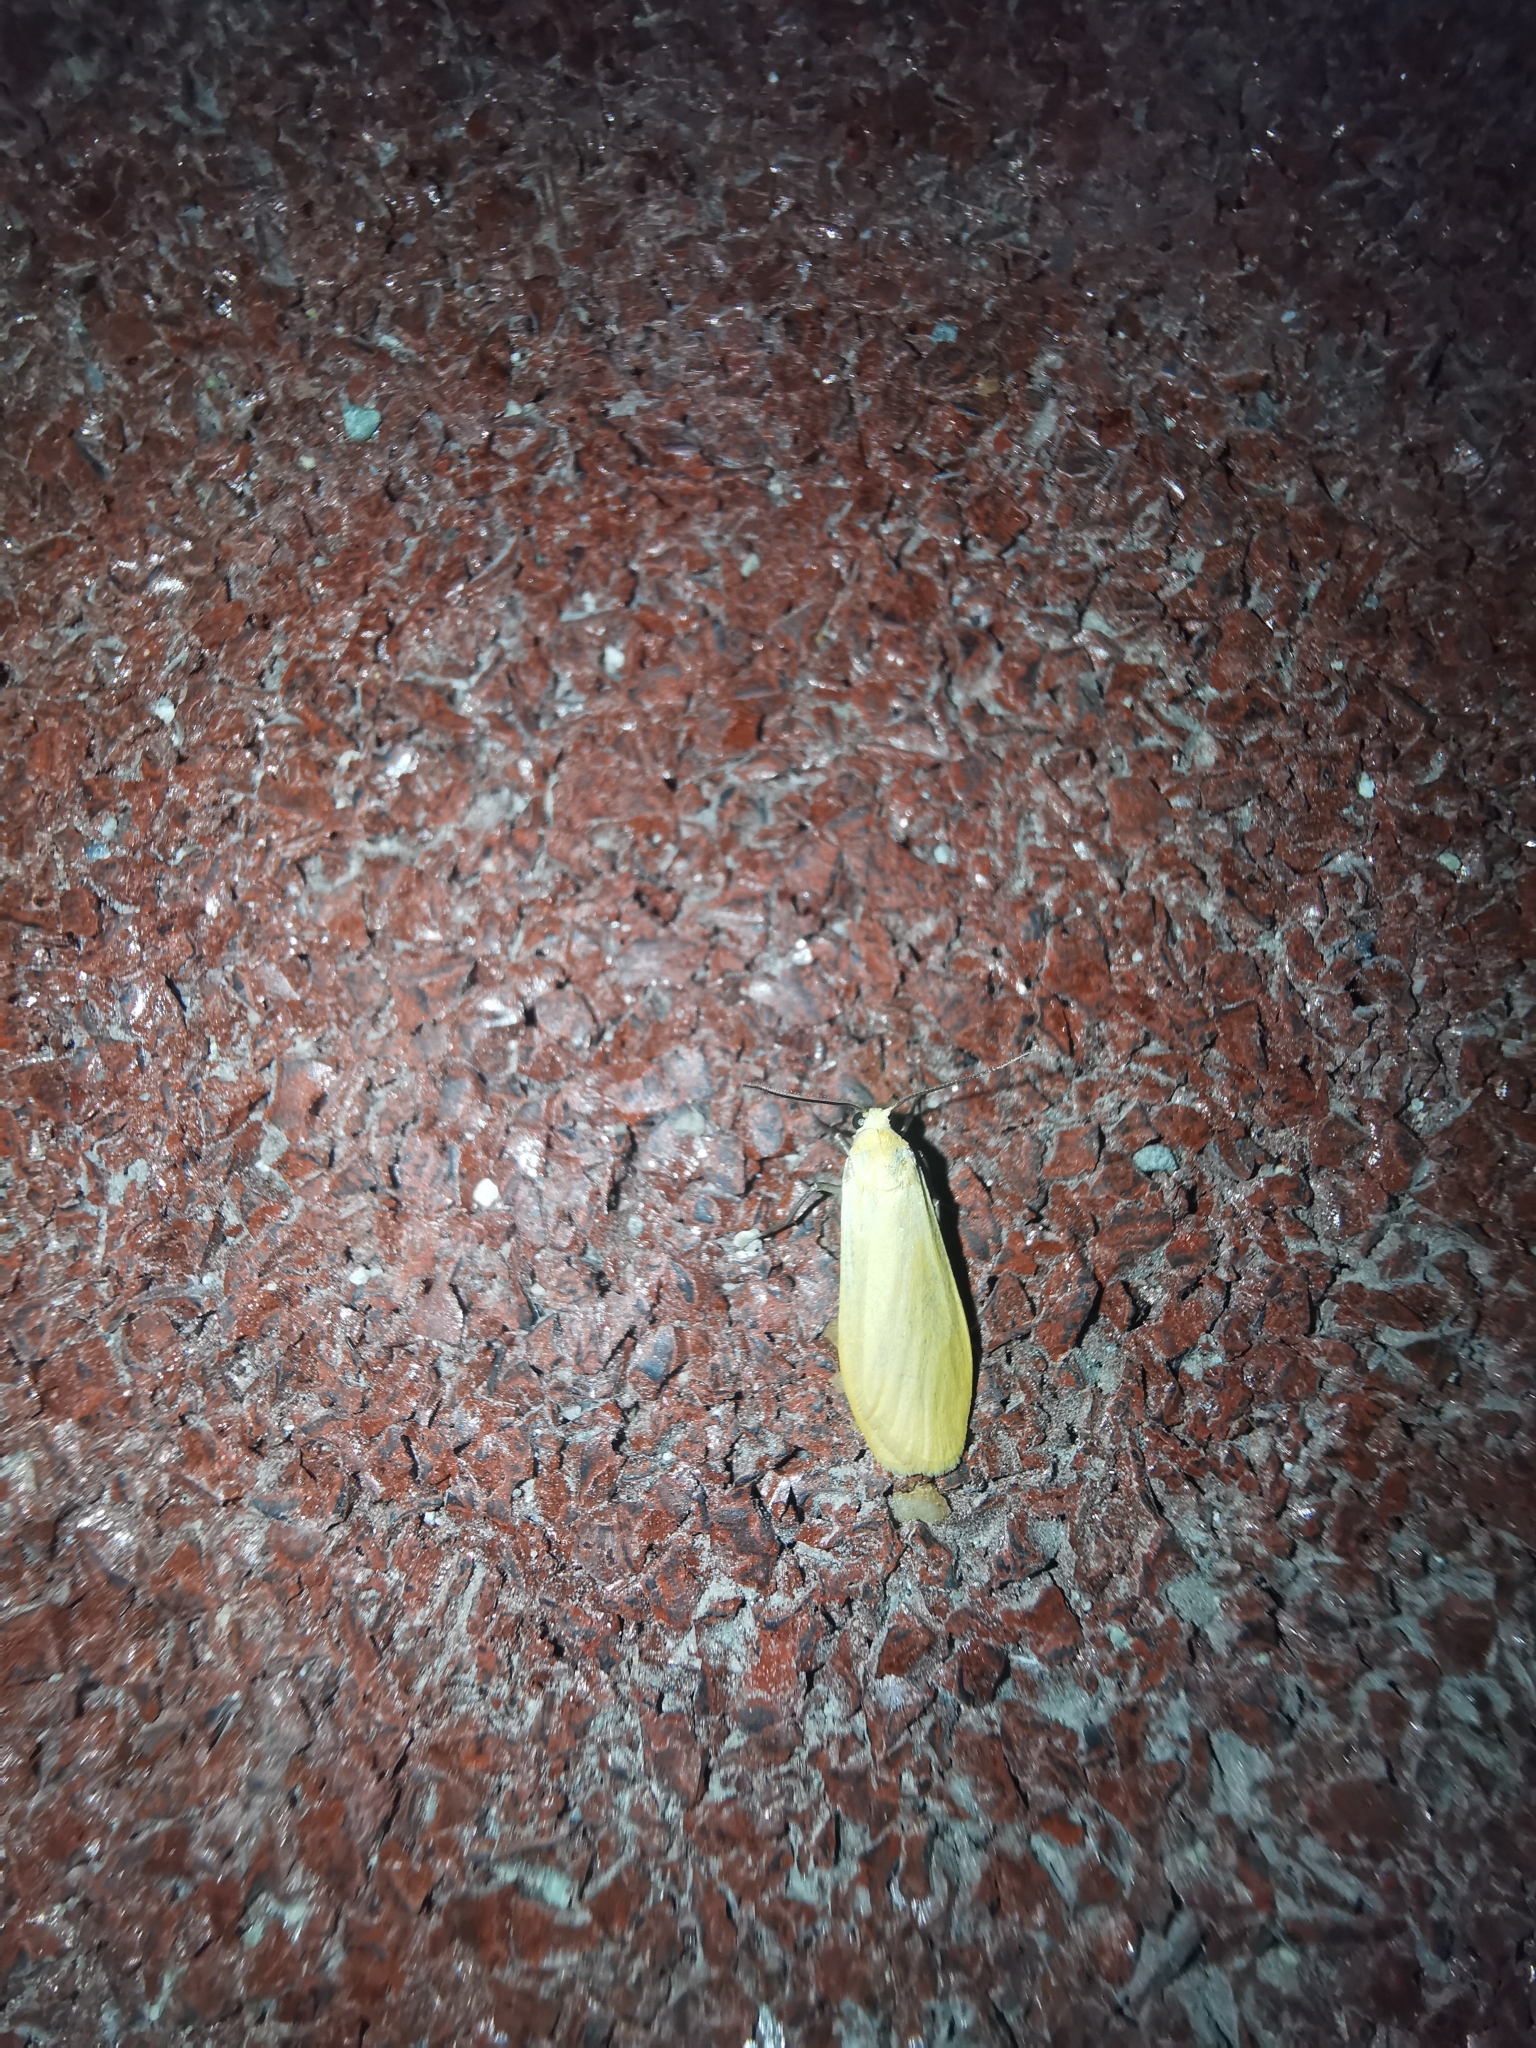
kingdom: Animalia
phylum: Arthropoda
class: Insecta
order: Lepidoptera
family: Erebidae
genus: Wittia
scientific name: Wittia sororcula
